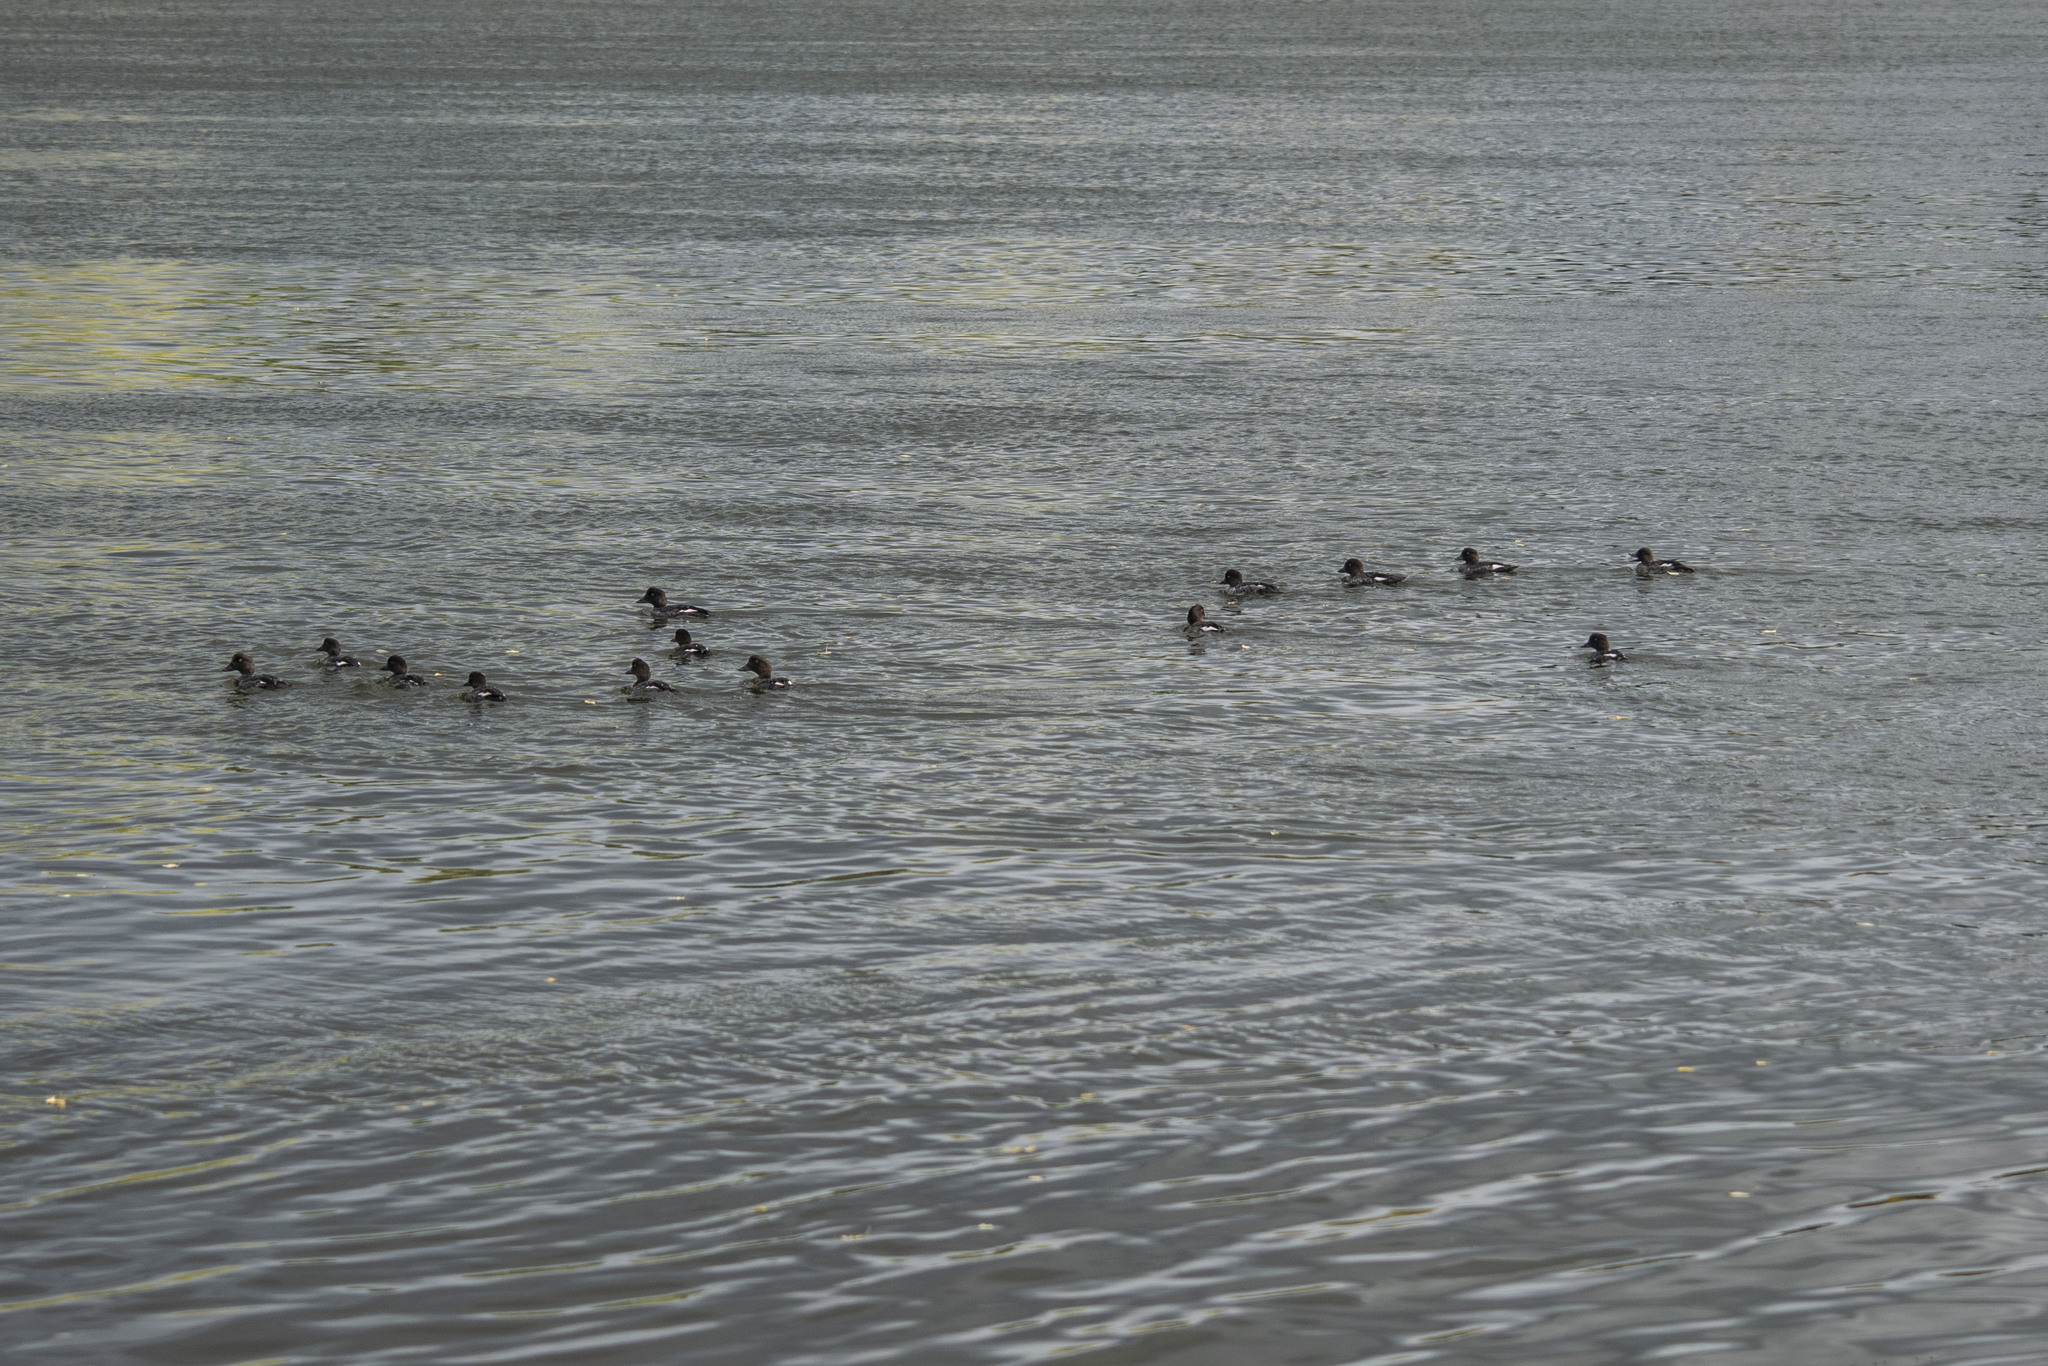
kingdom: Animalia
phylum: Chordata
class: Aves
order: Anseriformes
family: Anatidae
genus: Bucephala
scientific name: Bucephala clangula
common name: Common goldeneye
